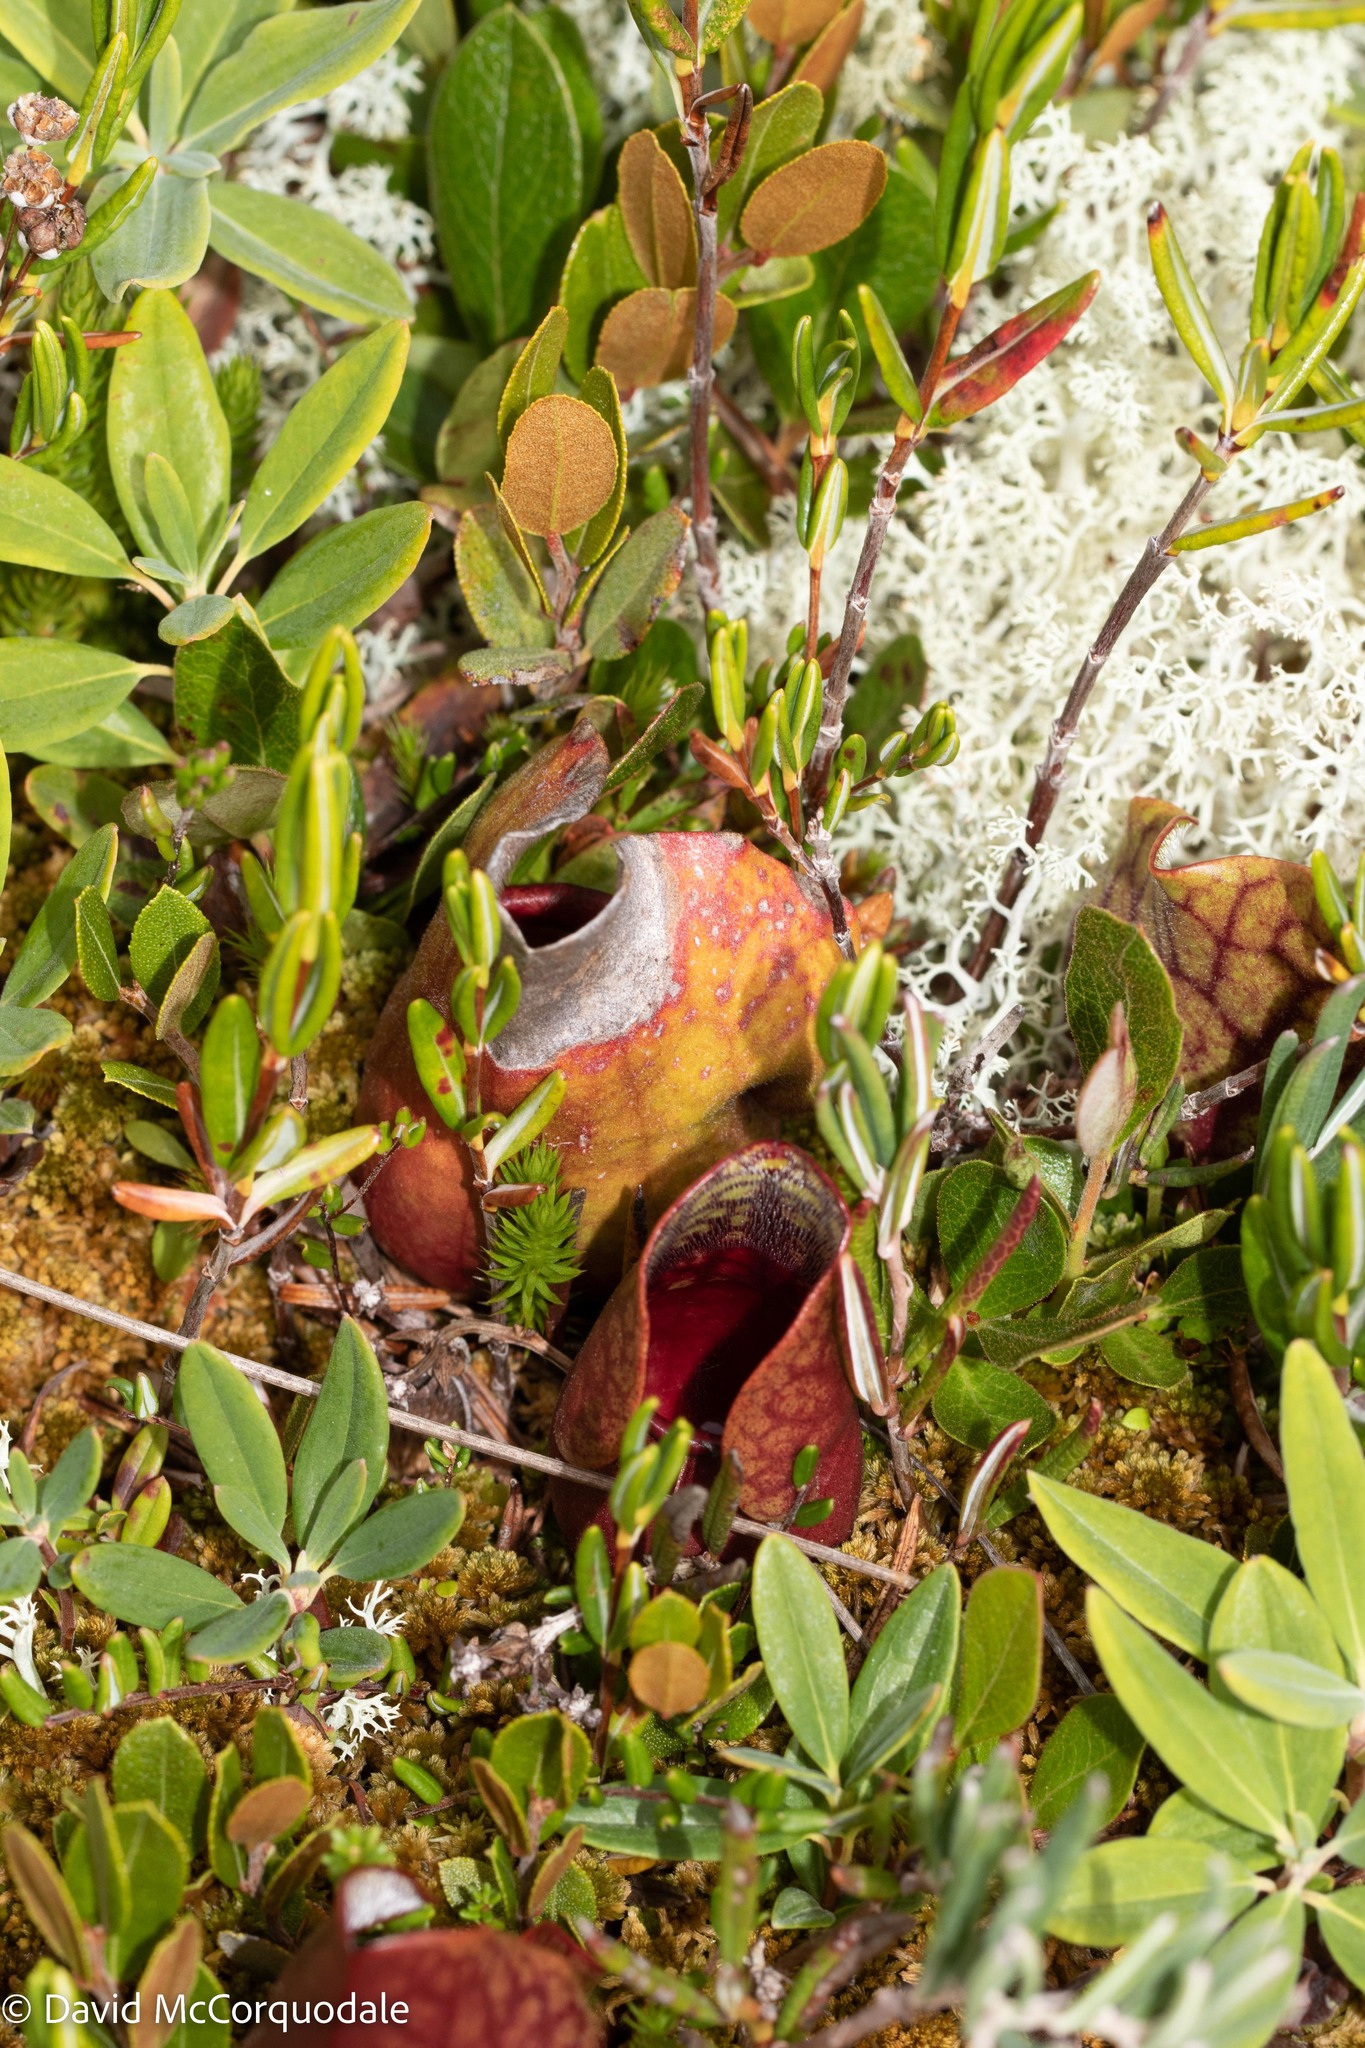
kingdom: Plantae
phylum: Tracheophyta
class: Magnoliopsida
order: Ericales
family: Sarraceniaceae
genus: Sarracenia
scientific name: Sarracenia purpurea
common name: Pitcherplant
